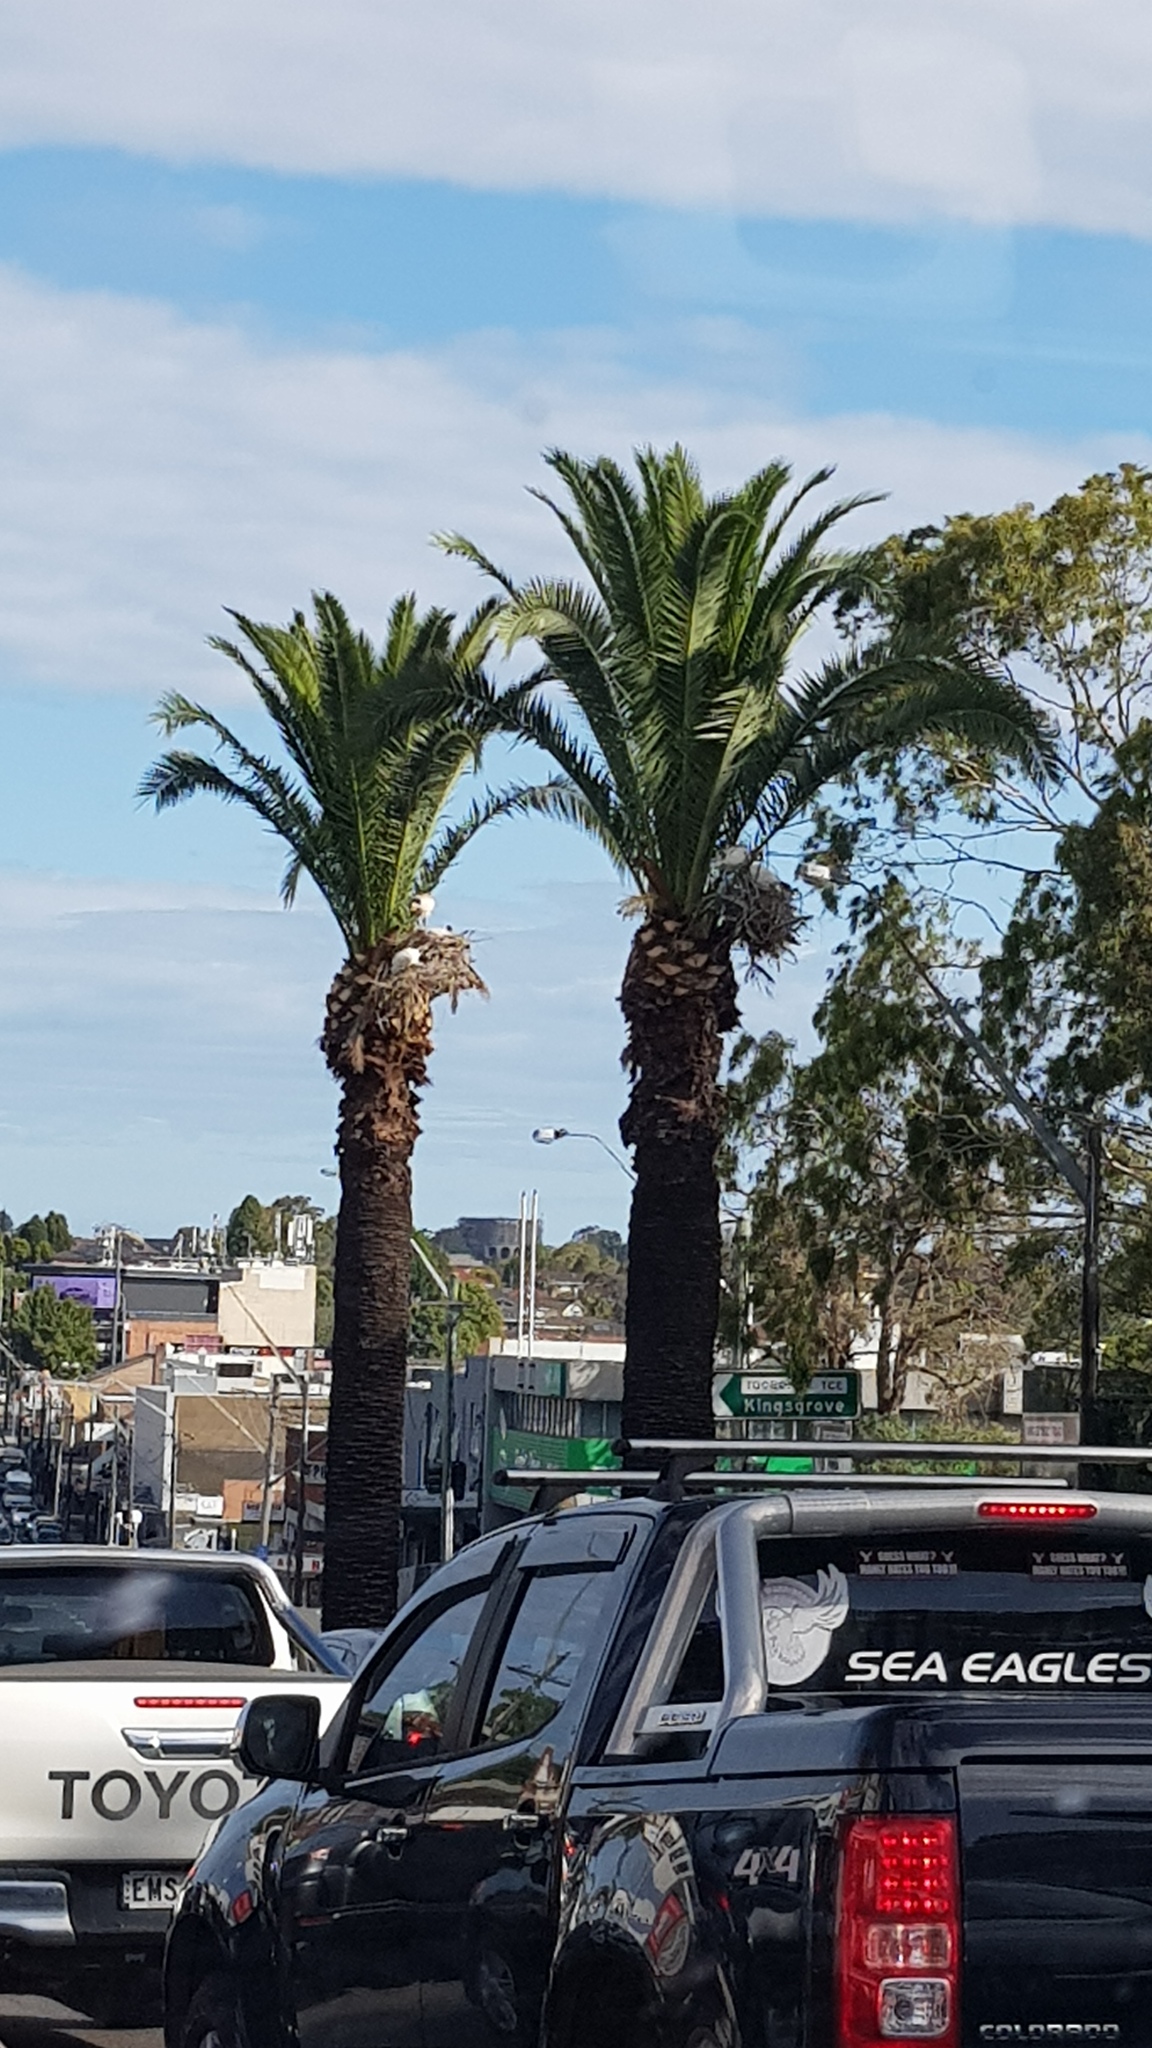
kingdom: Animalia
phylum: Chordata
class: Aves
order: Pelecaniformes
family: Threskiornithidae
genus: Threskiornis
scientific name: Threskiornis molucca
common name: Australian white ibis
